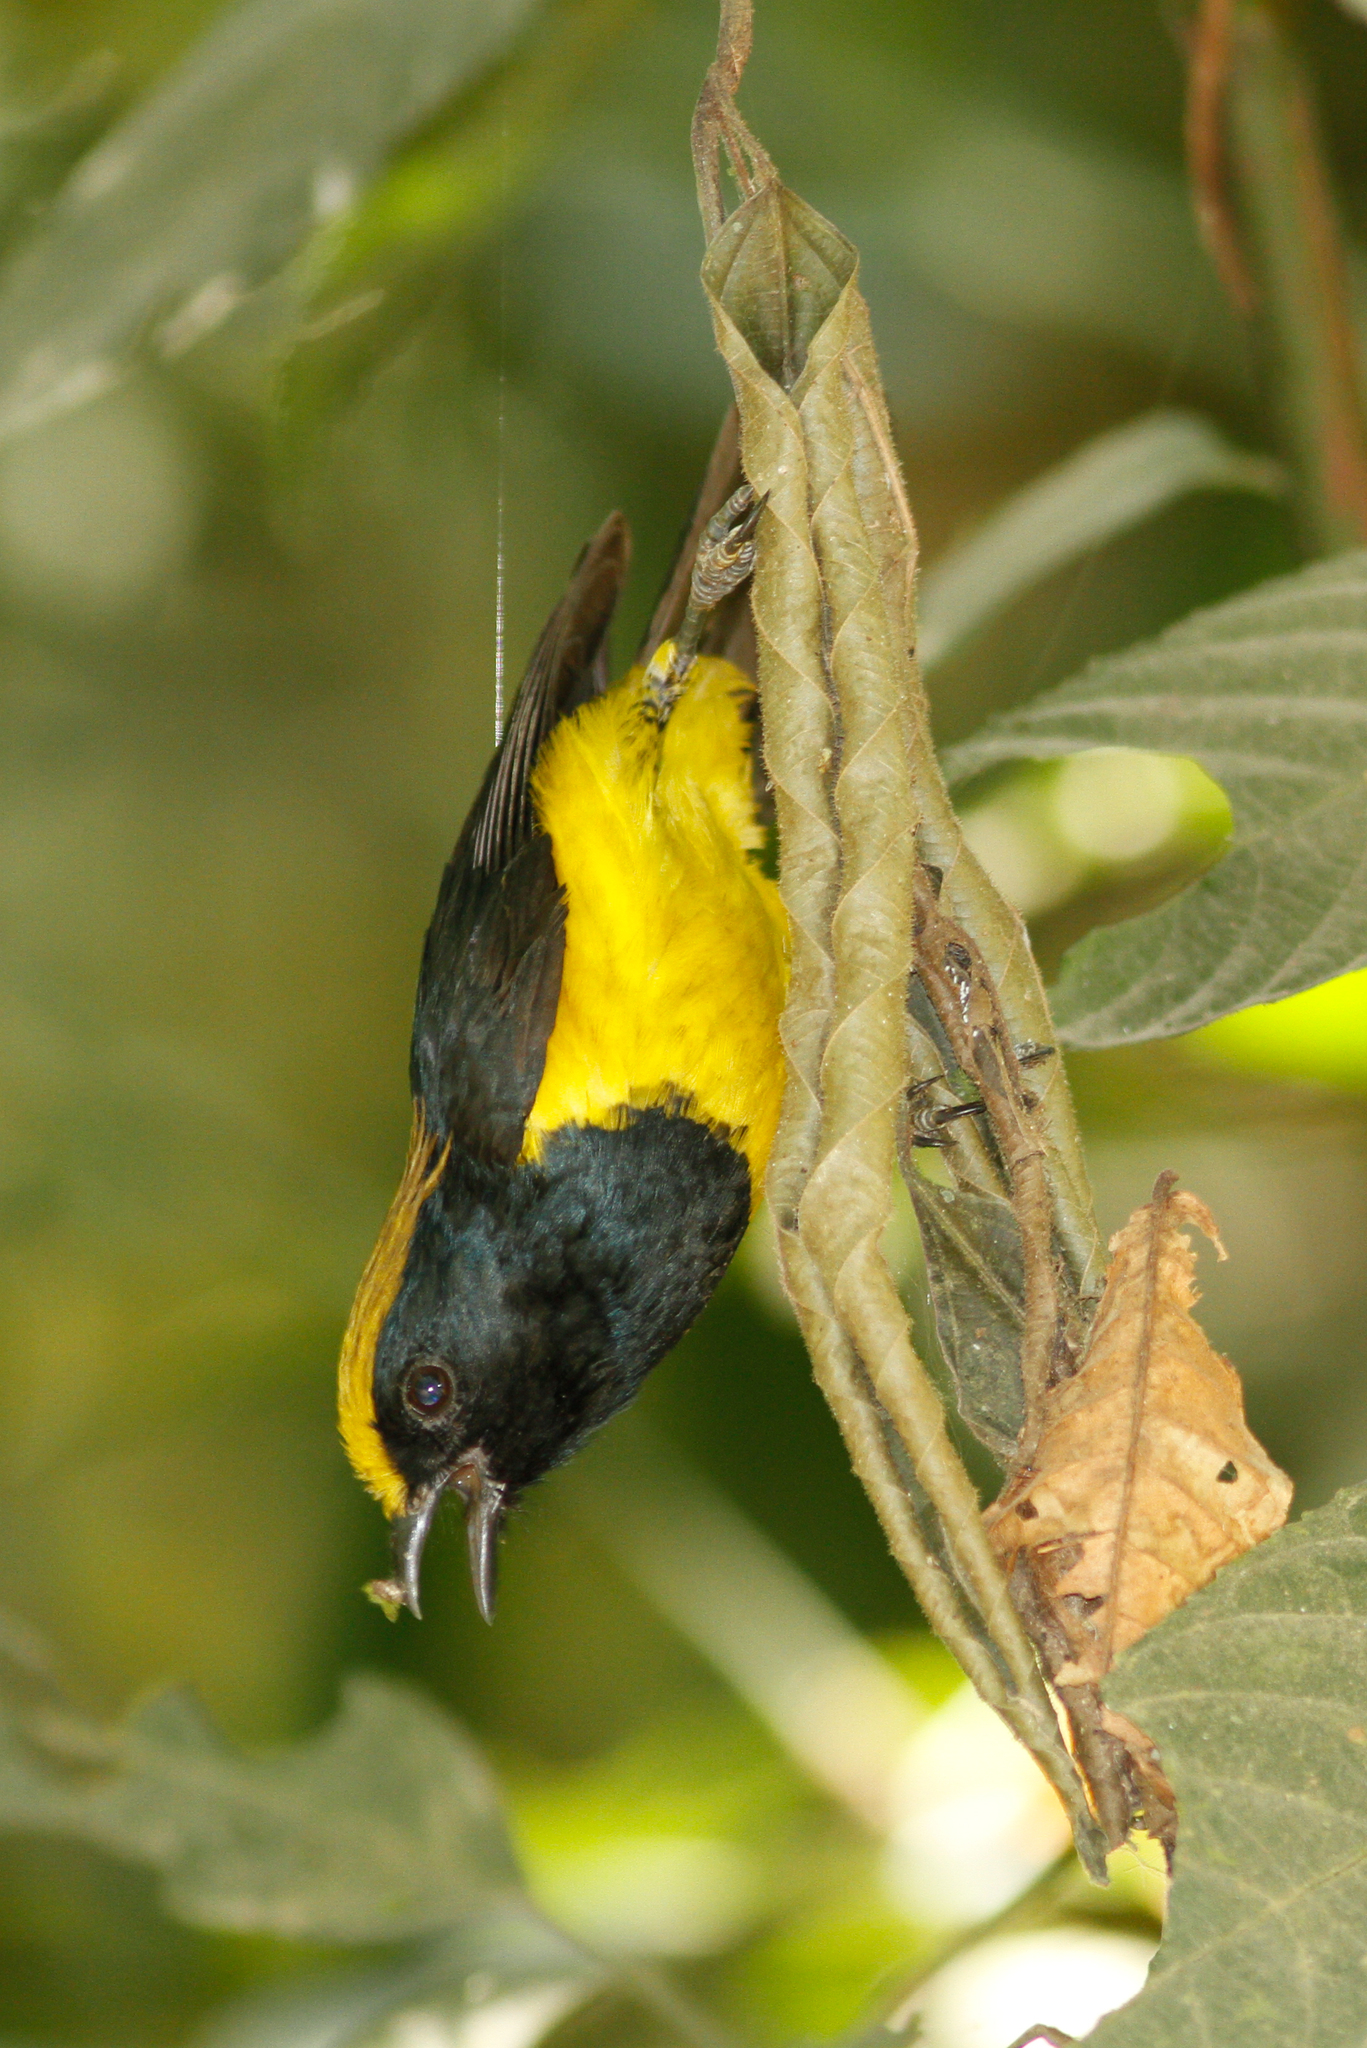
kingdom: Animalia
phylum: Chordata
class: Aves
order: Passeriformes
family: Paridae
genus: Melanochlora
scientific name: Melanochlora sultanea
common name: Sultan tit
